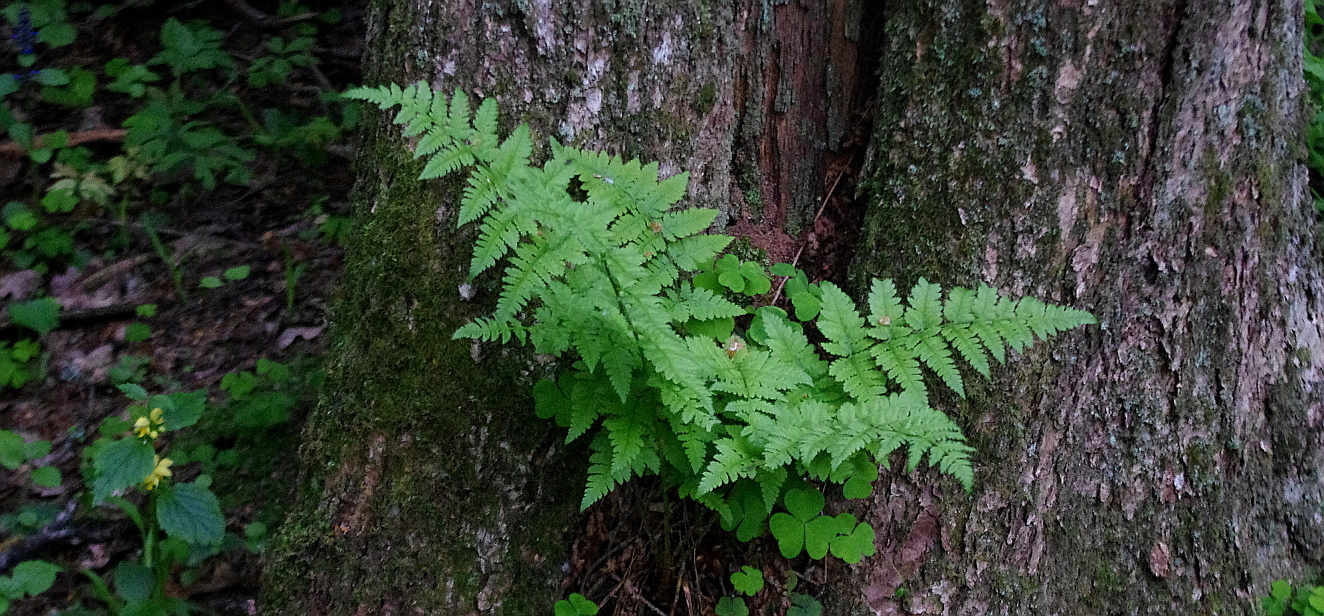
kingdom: Plantae
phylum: Tracheophyta
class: Polypodiopsida
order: Polypodiales
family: Dryopteridaceae
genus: Dryopteris
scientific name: Dryopteris carthusiana
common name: Narrow buckler-fern
